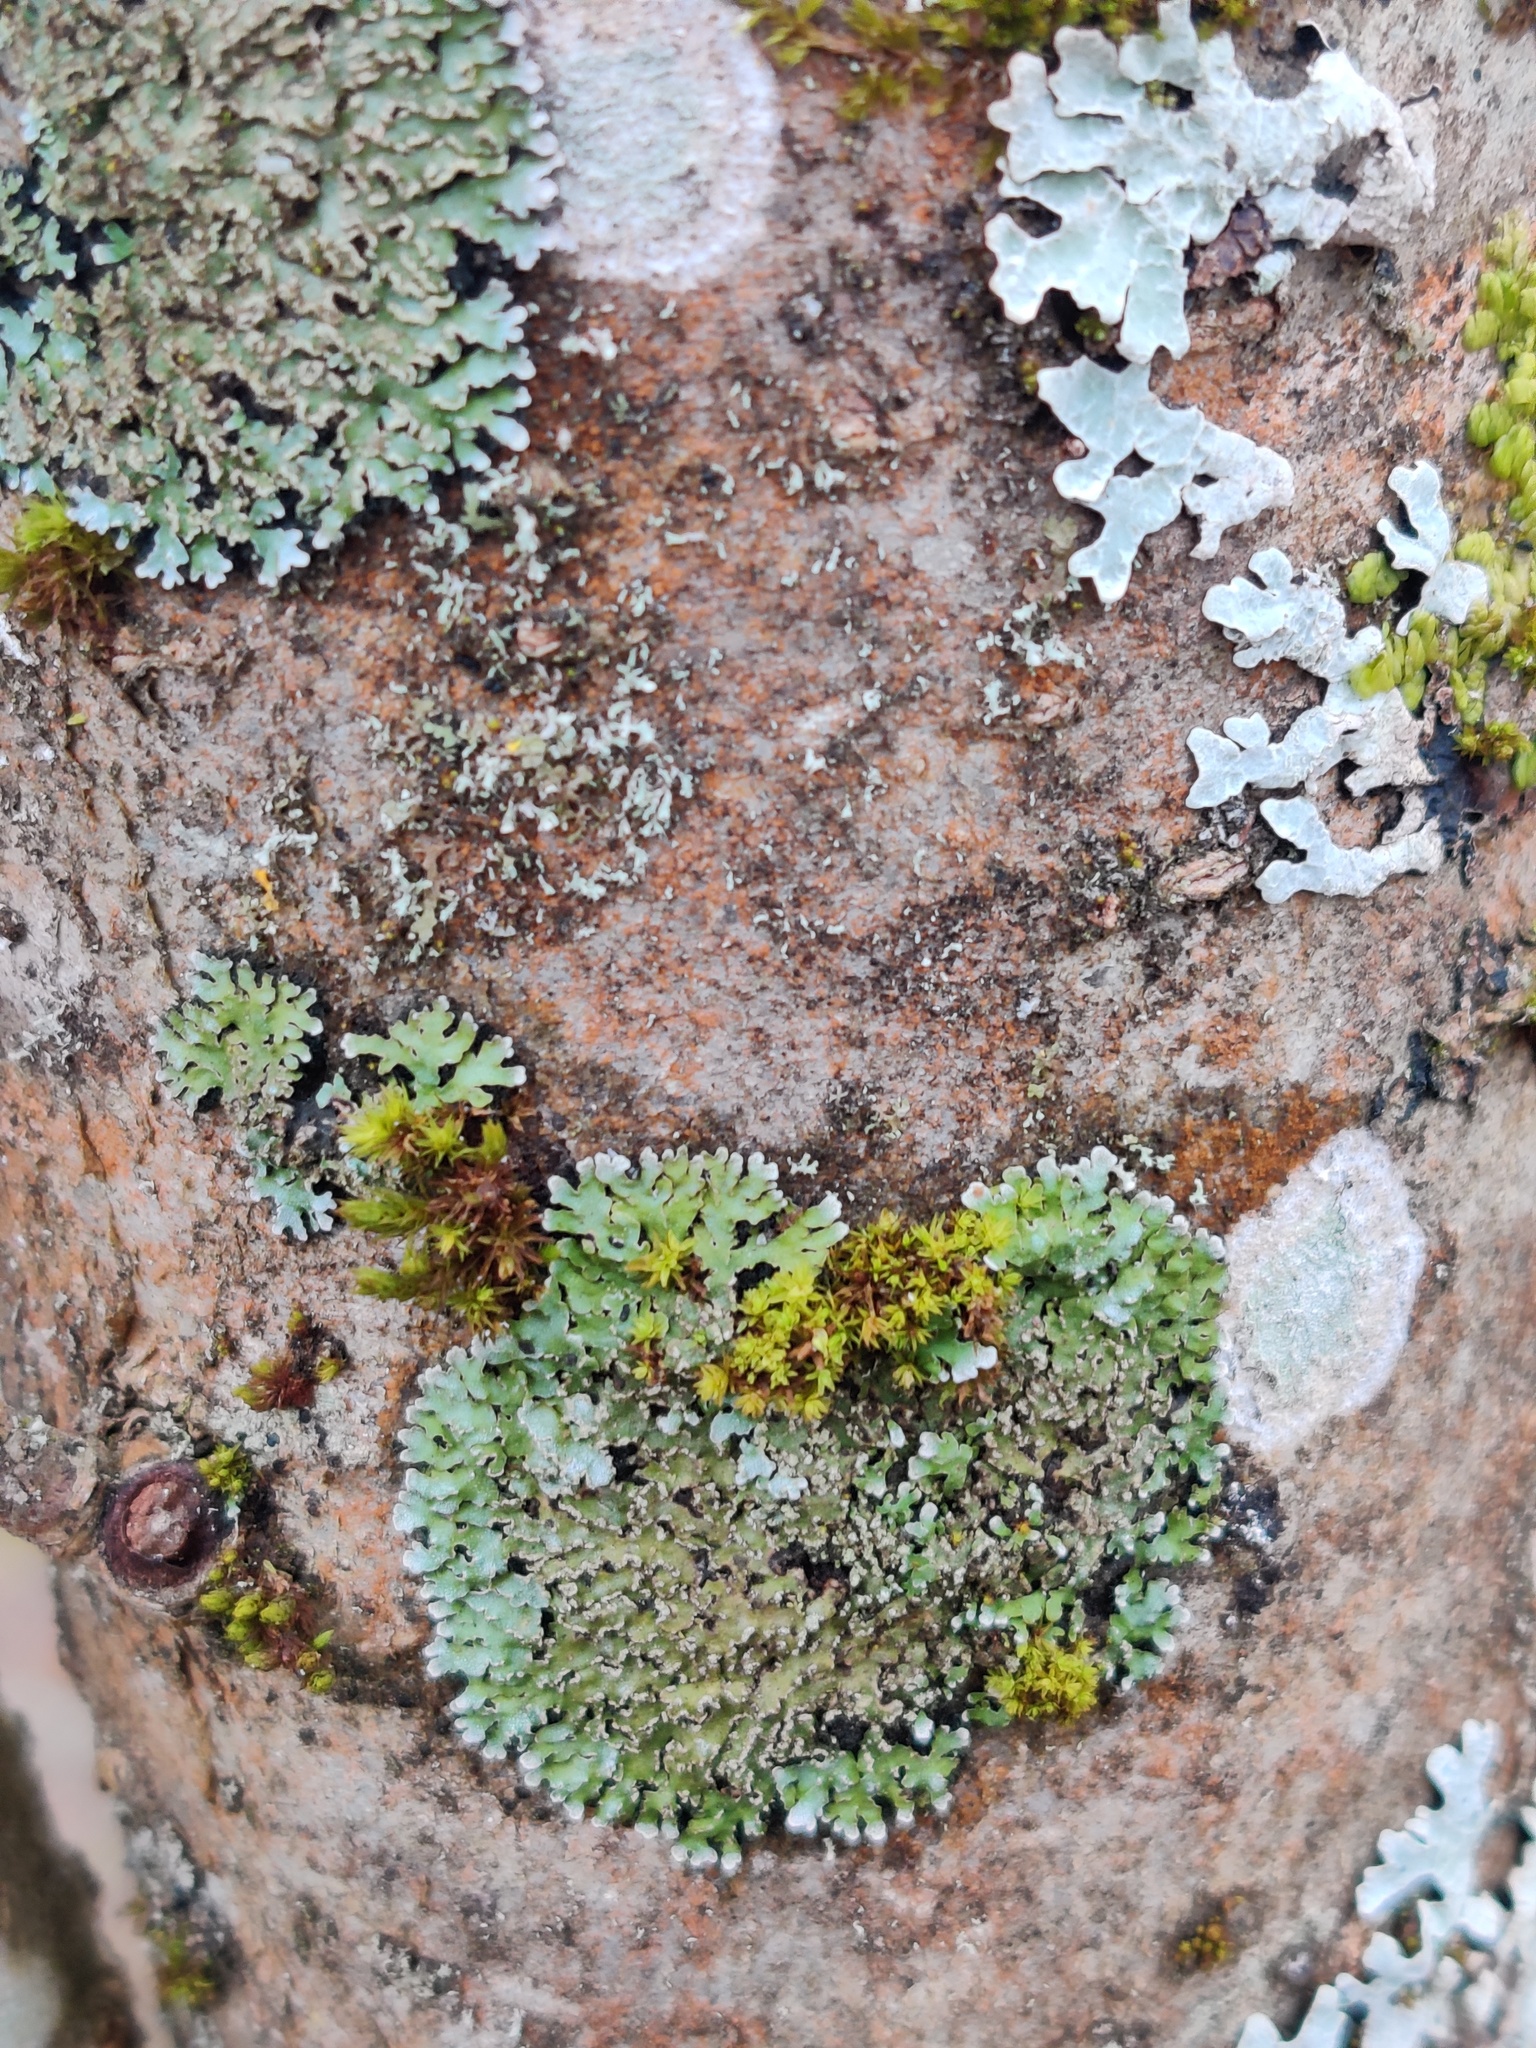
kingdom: Fungi
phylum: Ascomycota
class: Lecanoromycetes
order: Caliciales
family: Physciaceae
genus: Physconia
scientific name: Physconia perisidiosa
